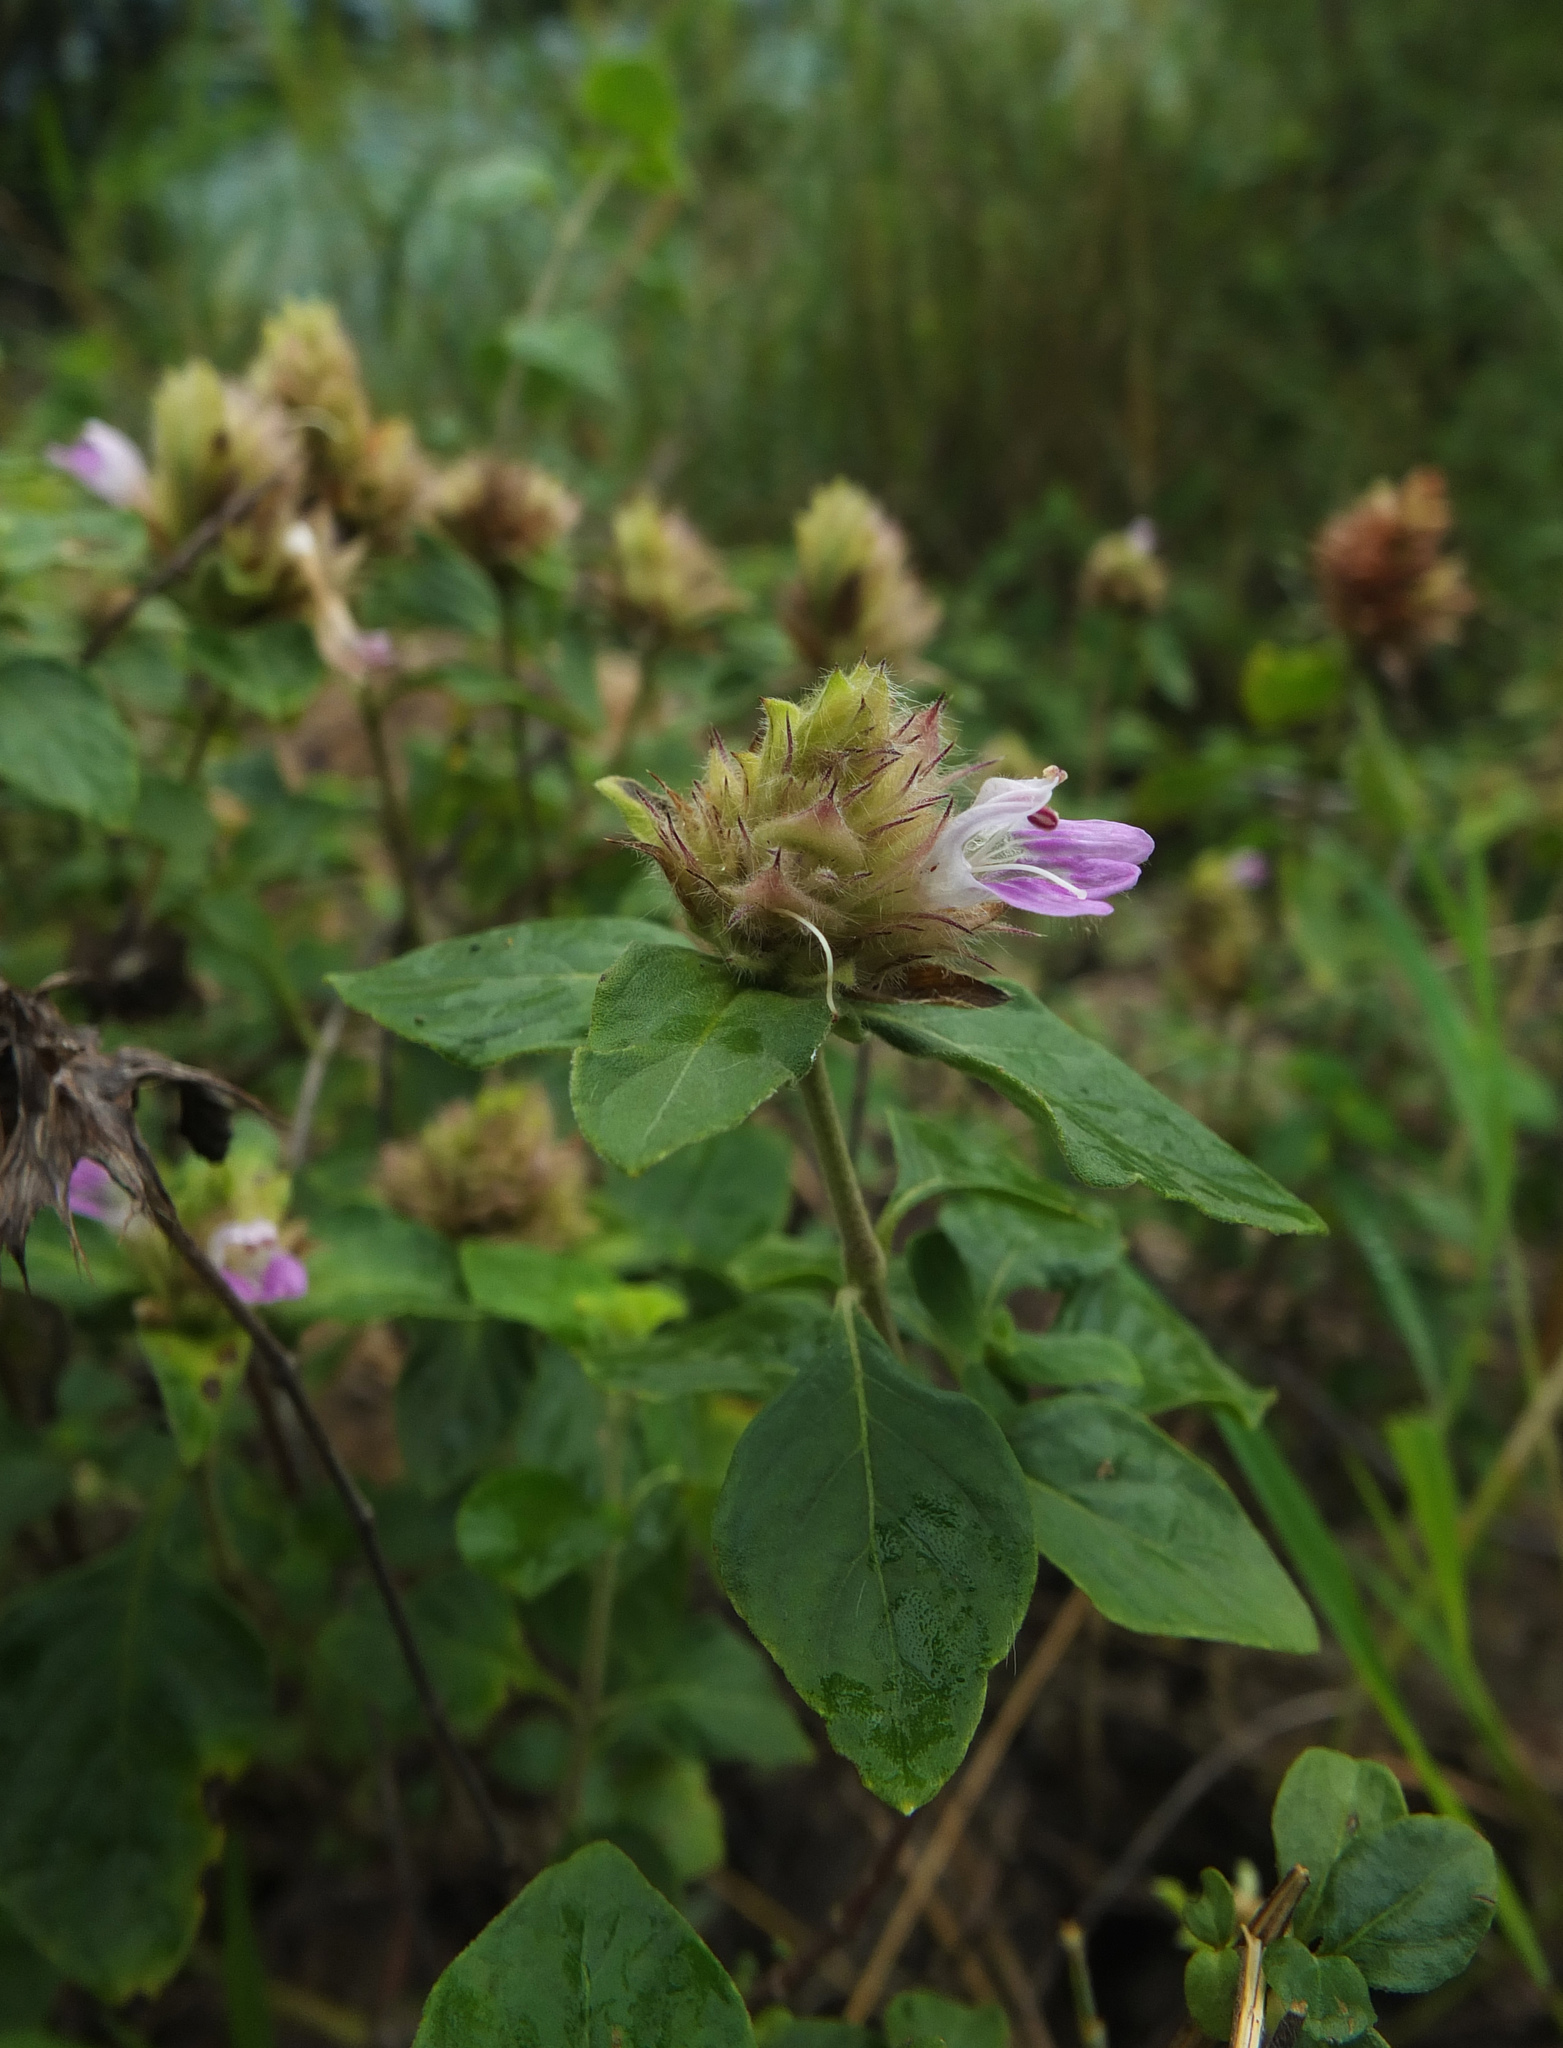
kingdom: Plantae
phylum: Tracheophyta
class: Magnoliopsida
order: Lamiales
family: Acanthaceae
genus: Lepidagathis
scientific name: Lepidagathis scariosa
